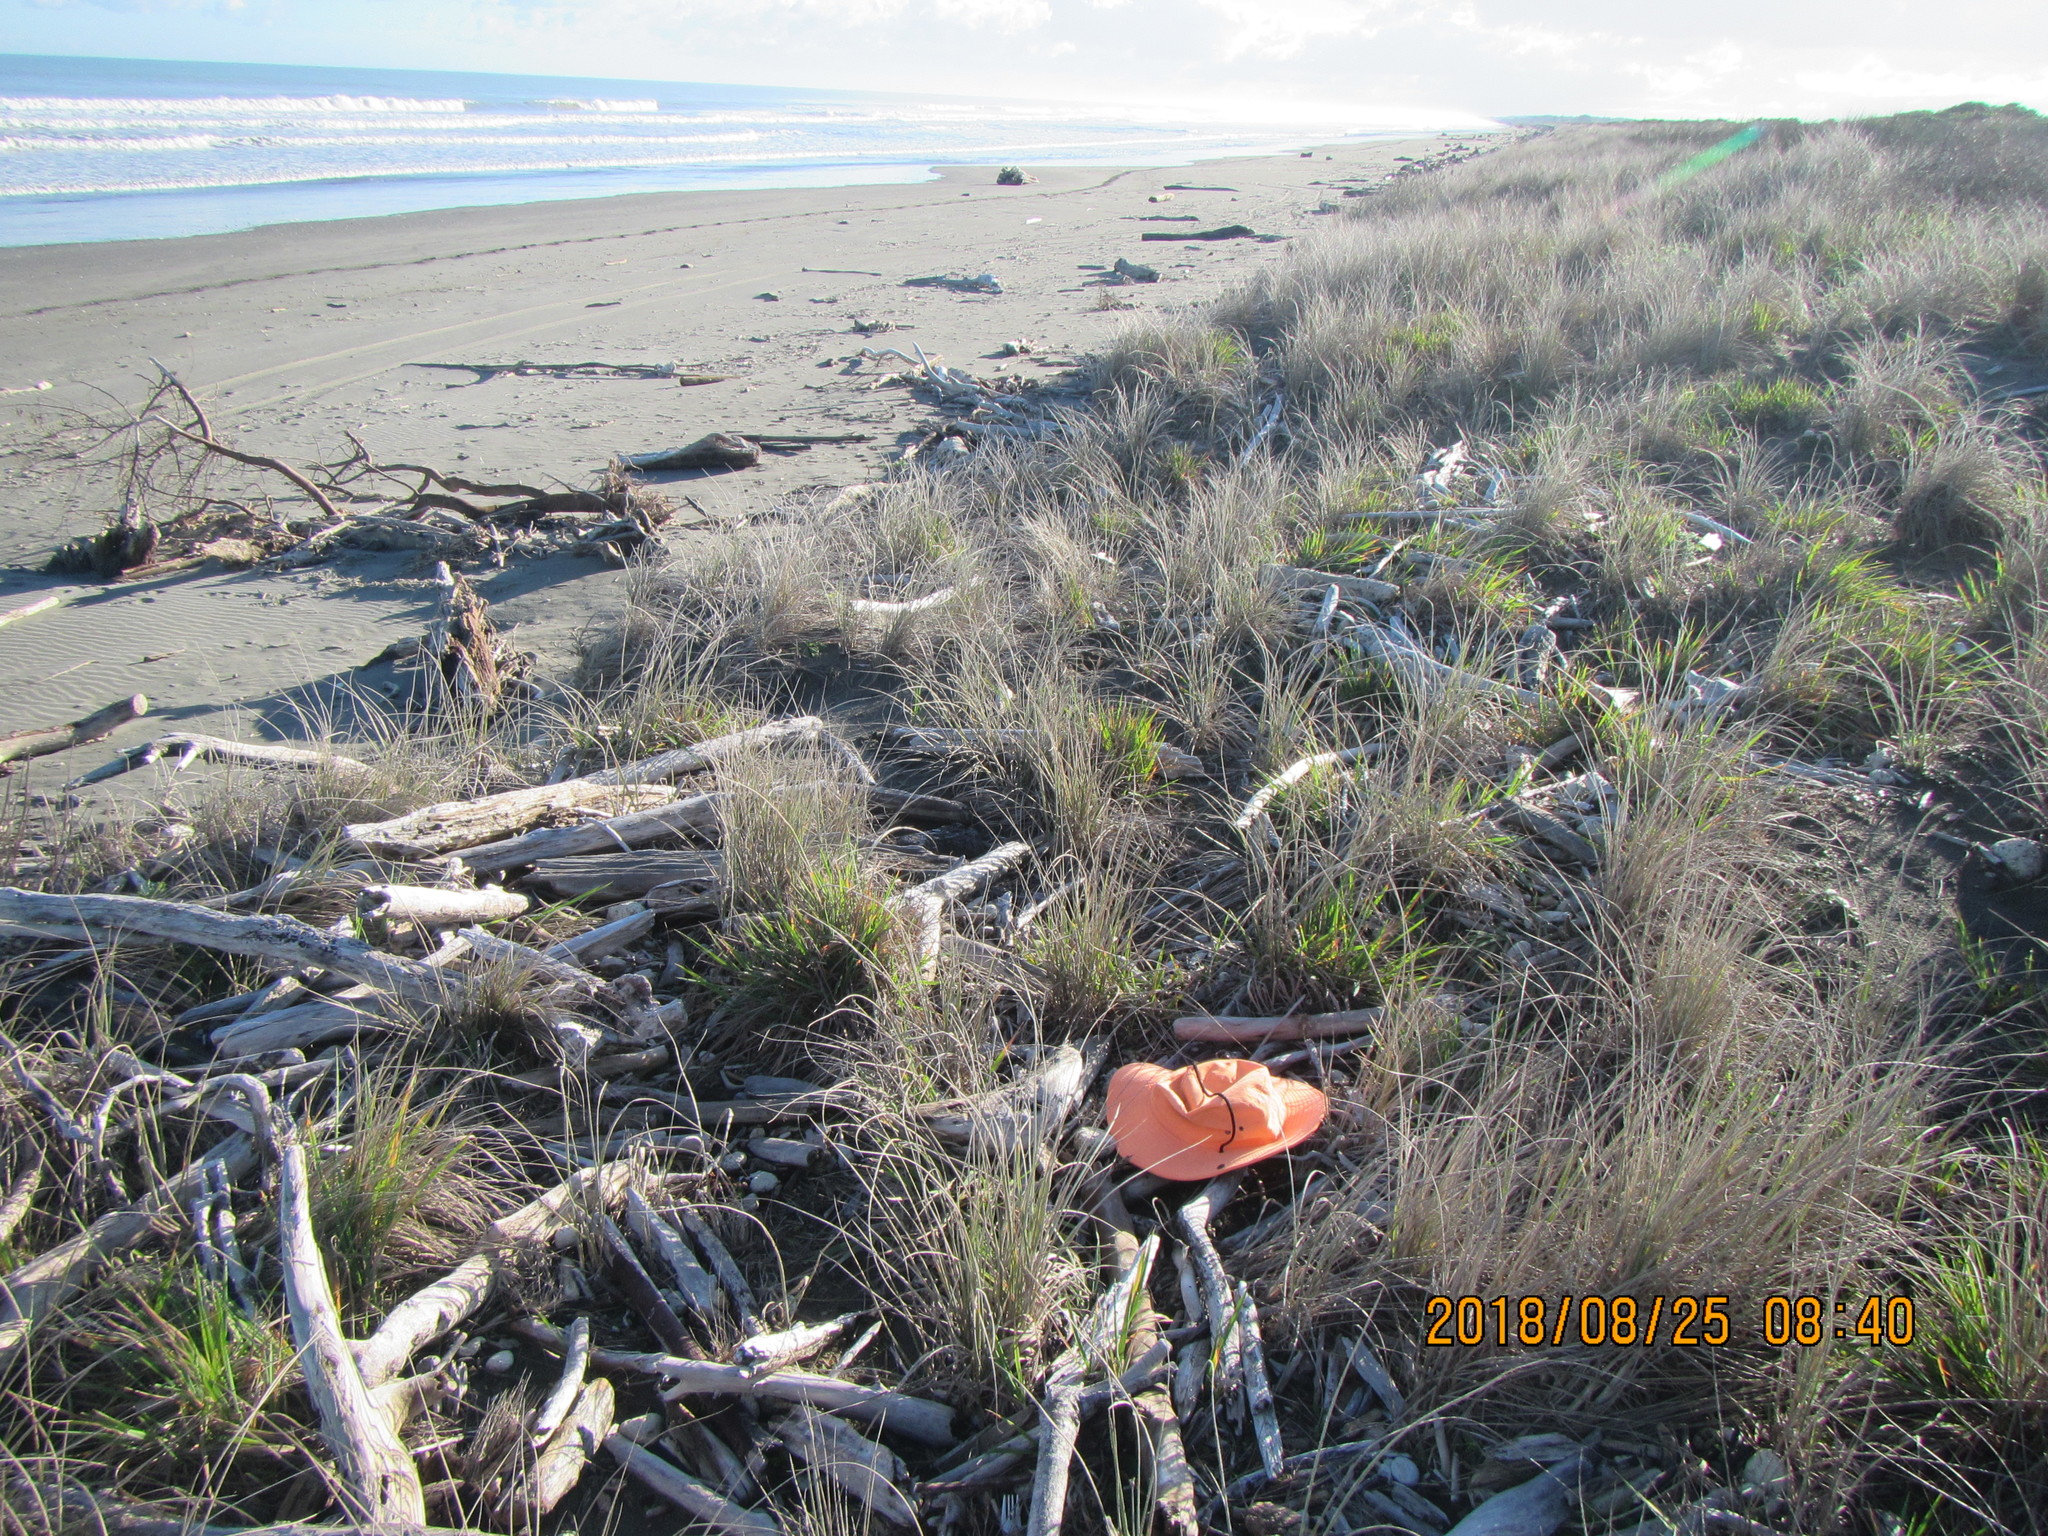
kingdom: Fungi
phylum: Basidiomycota
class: Agaricomycetes
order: Agaricales
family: Schizophyllaceae
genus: Schizophyllum
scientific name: Schizophyllum commune
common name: Common porecrust
